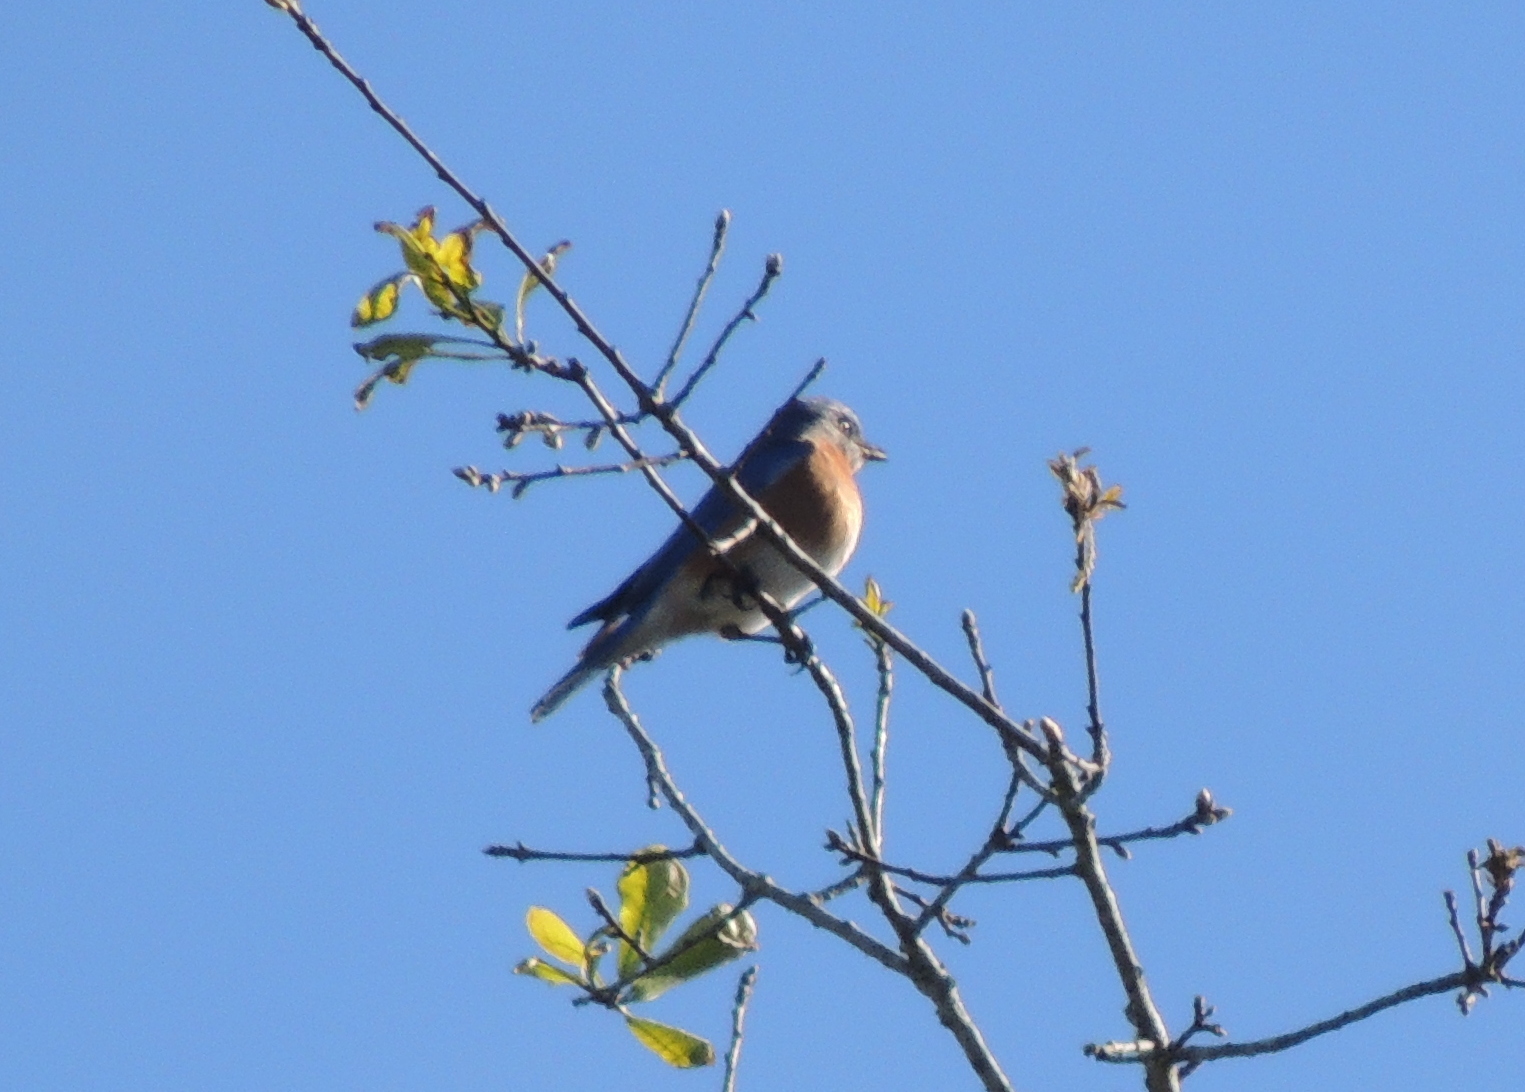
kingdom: Animalia
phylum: Chordata
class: Aves
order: Passeriformes
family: Turdidae
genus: Sialia
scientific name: Sialia sialis
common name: Eastern bluebird
